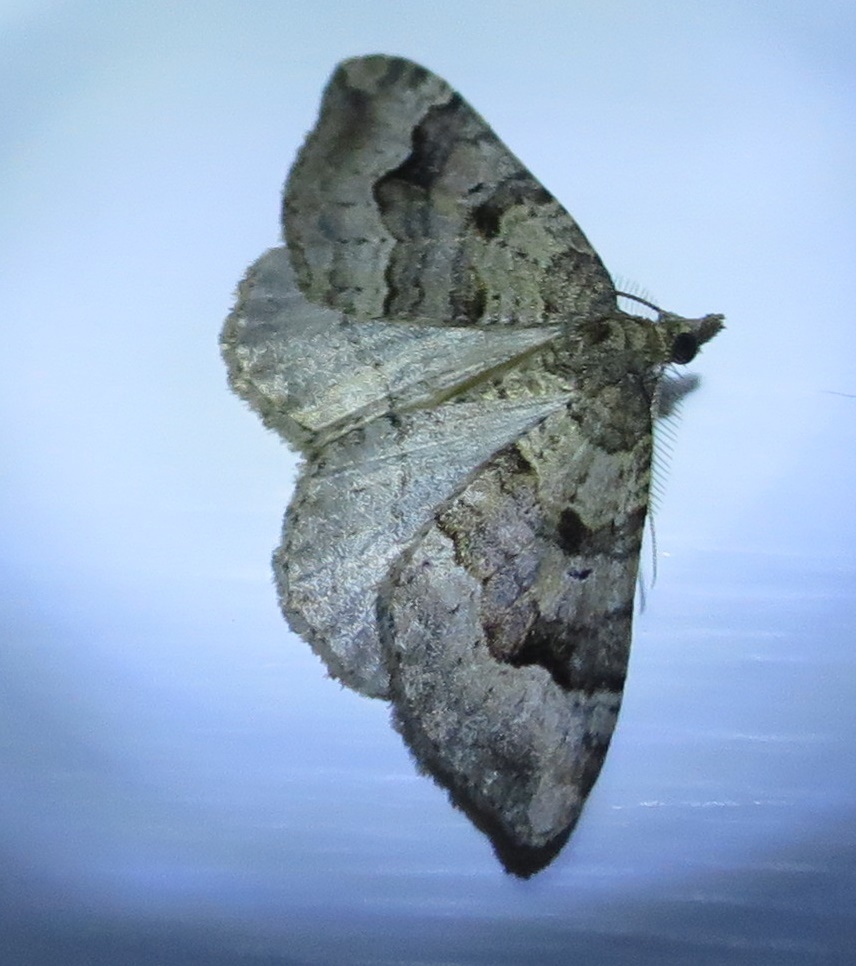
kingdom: Animalia
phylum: Arthropoda
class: Insecta
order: Lepidoptera
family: Geometridae
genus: Epyaxa
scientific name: Epyaxa rosearia
